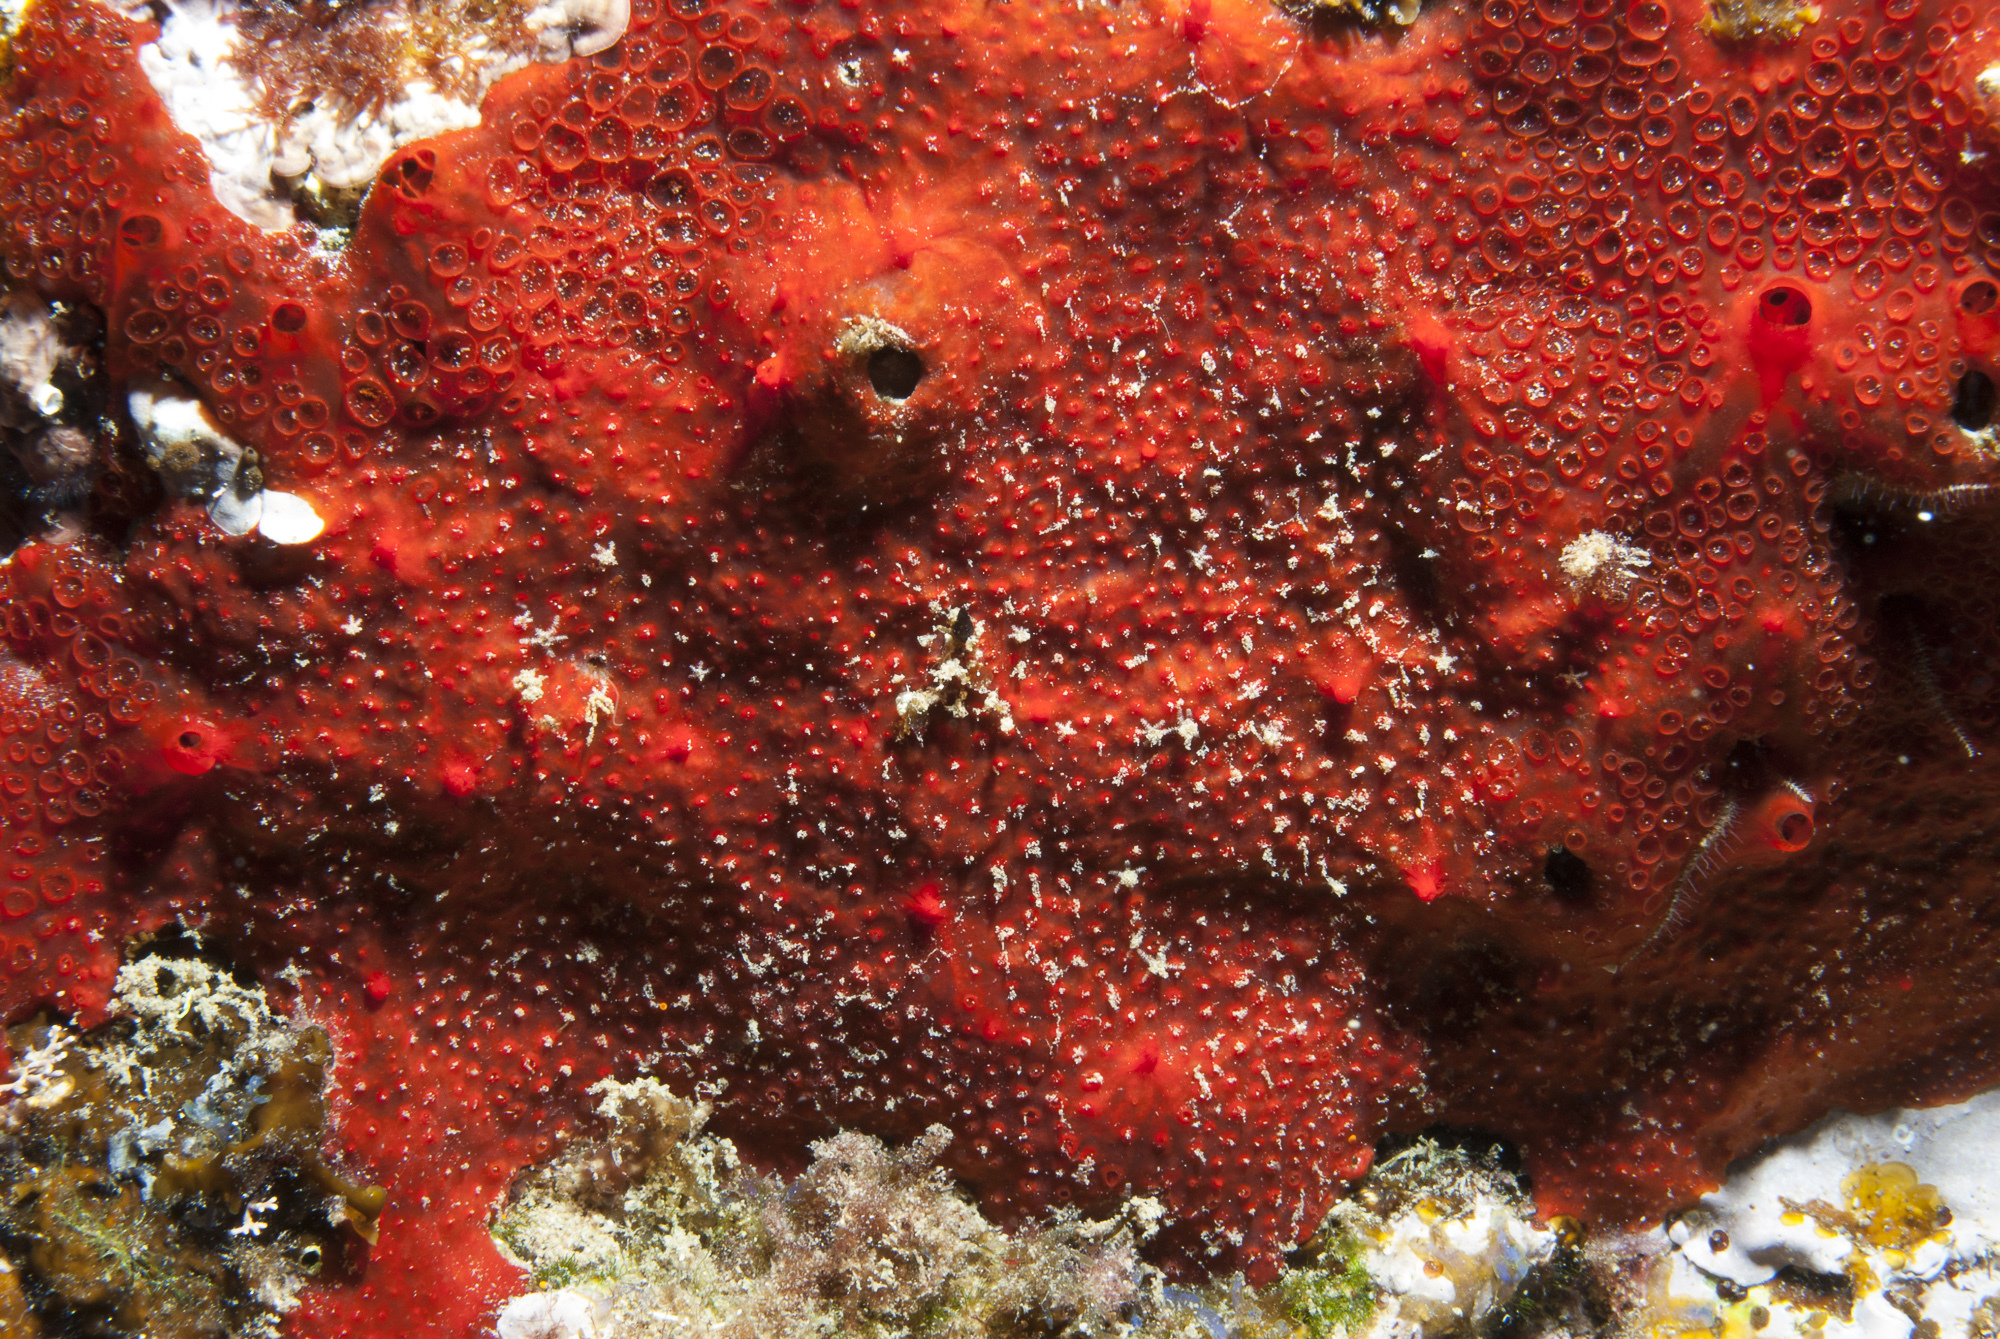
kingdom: Animalia
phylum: Porifera
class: Demospongiae
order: Poecilosclerida
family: Hymedesmiidae
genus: Hamigera
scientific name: Hamigera hamigera
